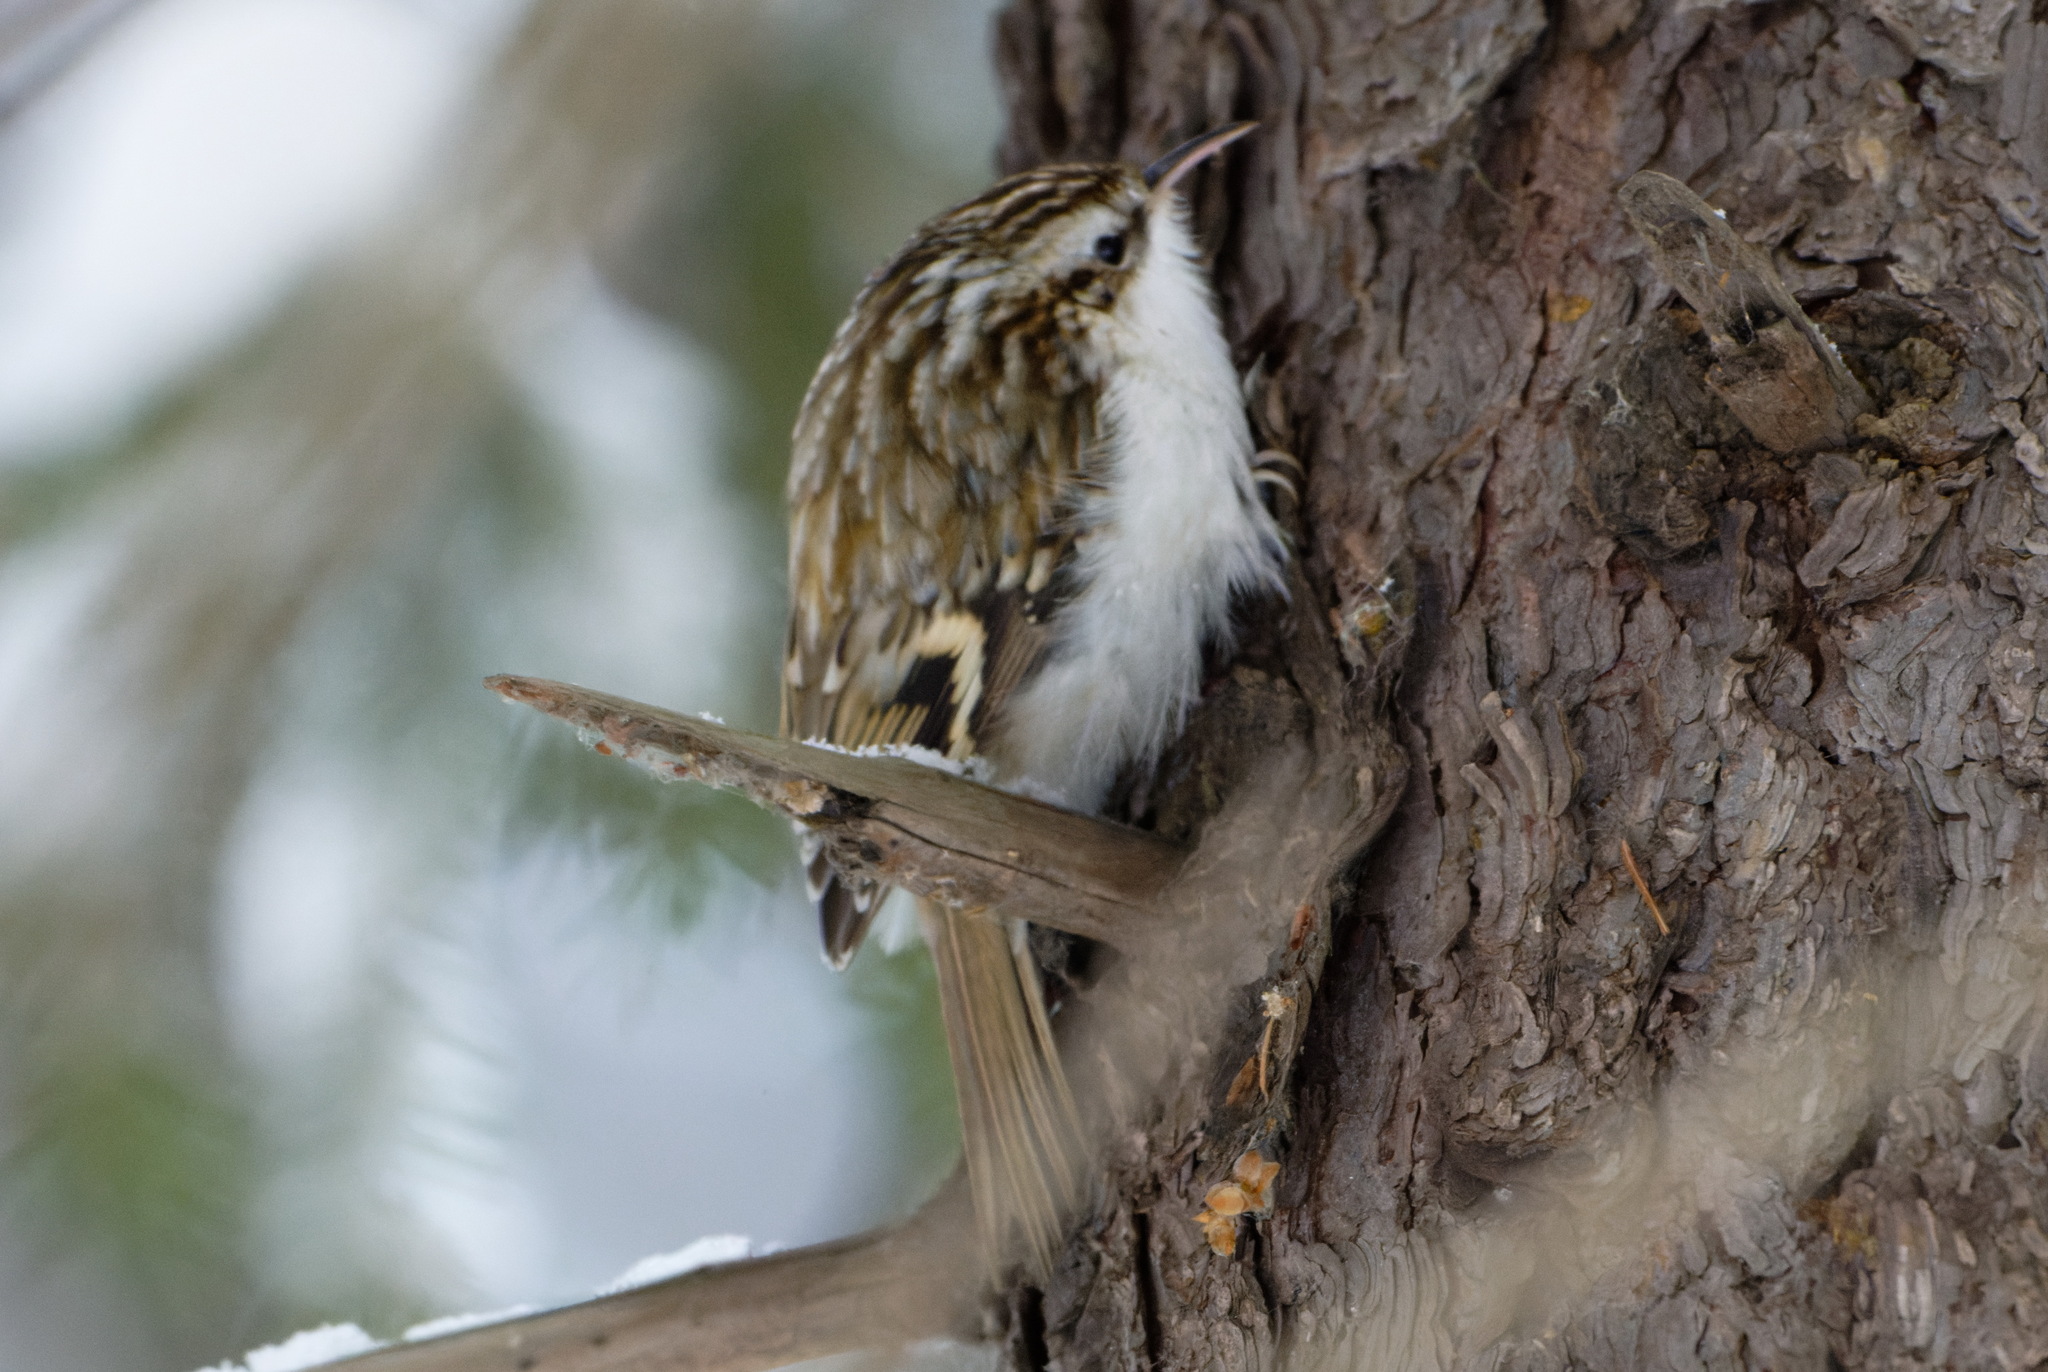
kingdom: Animalia
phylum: Chordata
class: Aves
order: Passeriformes
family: Certhiidae
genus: Certhia
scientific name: Certhia familiaris
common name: Eurasian treecreeper
